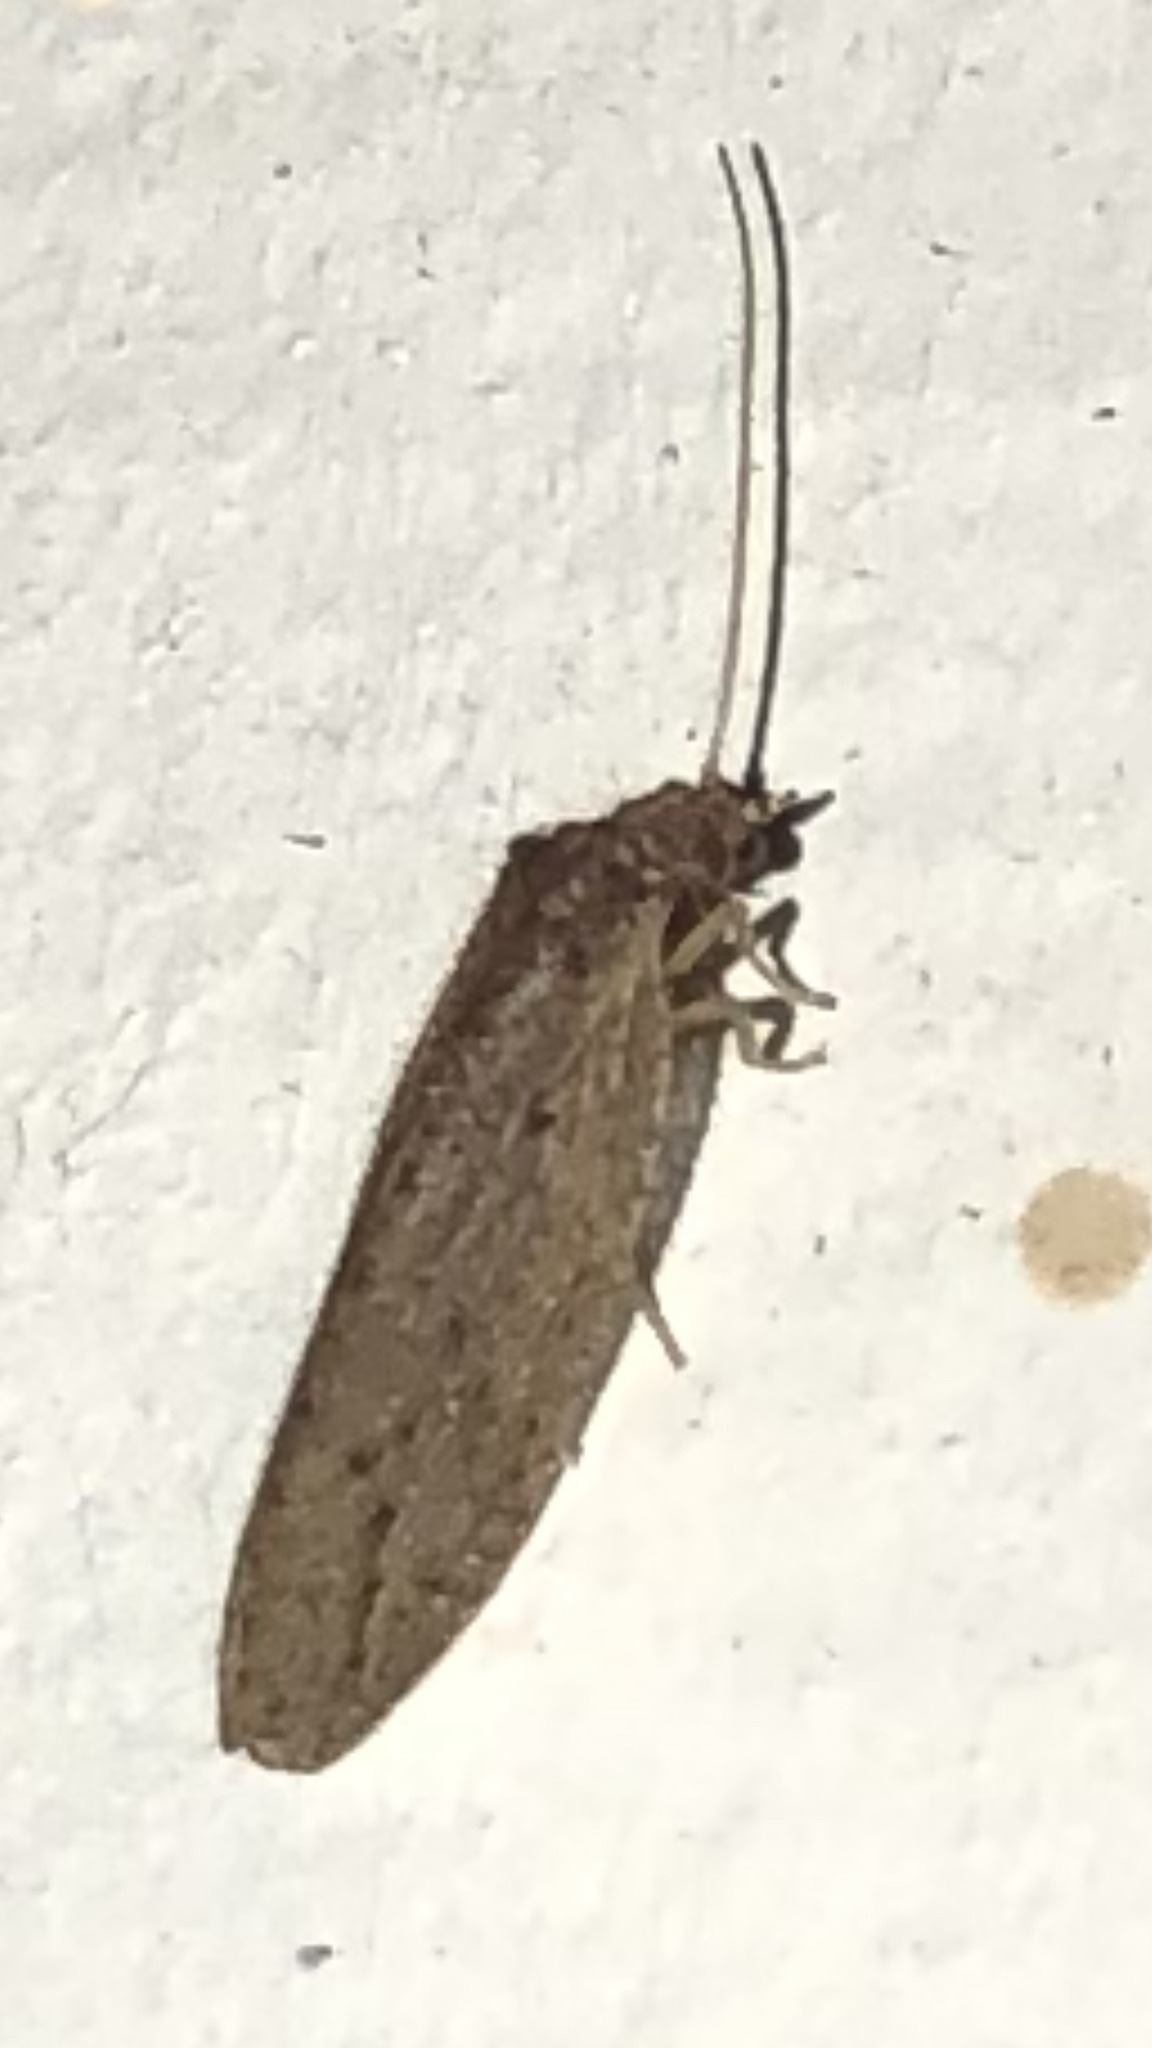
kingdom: Animalia
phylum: Arthropoda
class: Insecta
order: Neuroptera
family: Hemerobiidae
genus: Micromus
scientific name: Micromus subanticus
